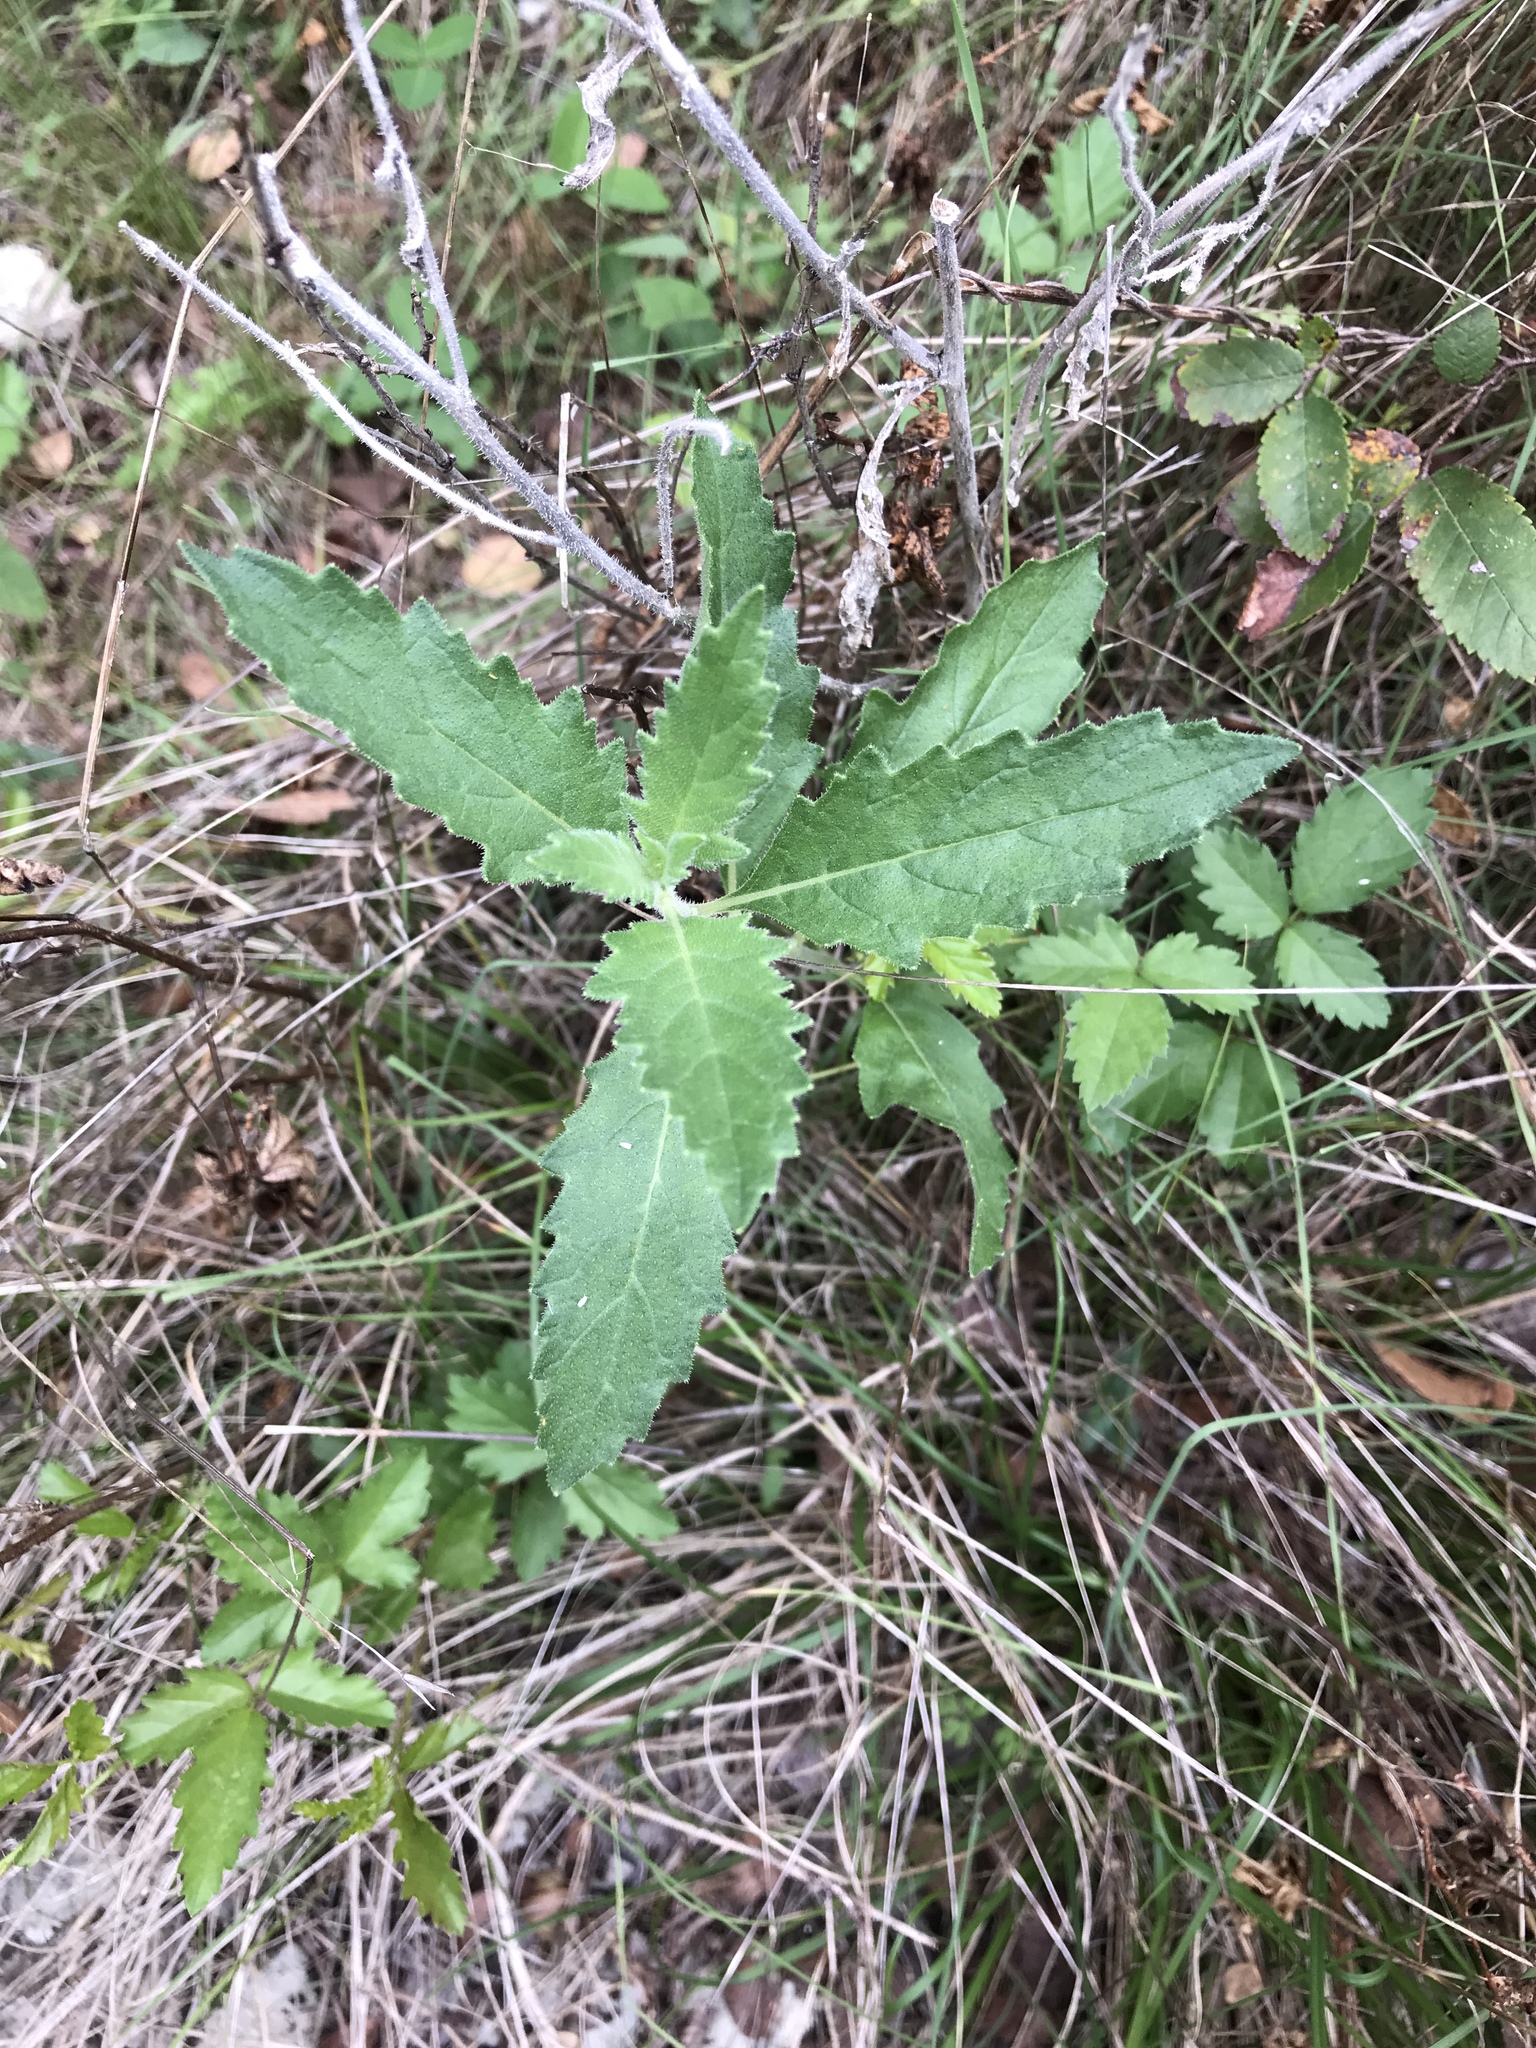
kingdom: Plantae
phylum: Tracheophyta
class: Magnoliopsida
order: Cornales
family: Loasaceae
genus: Mentzelia
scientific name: Mentzelia oligosperma
